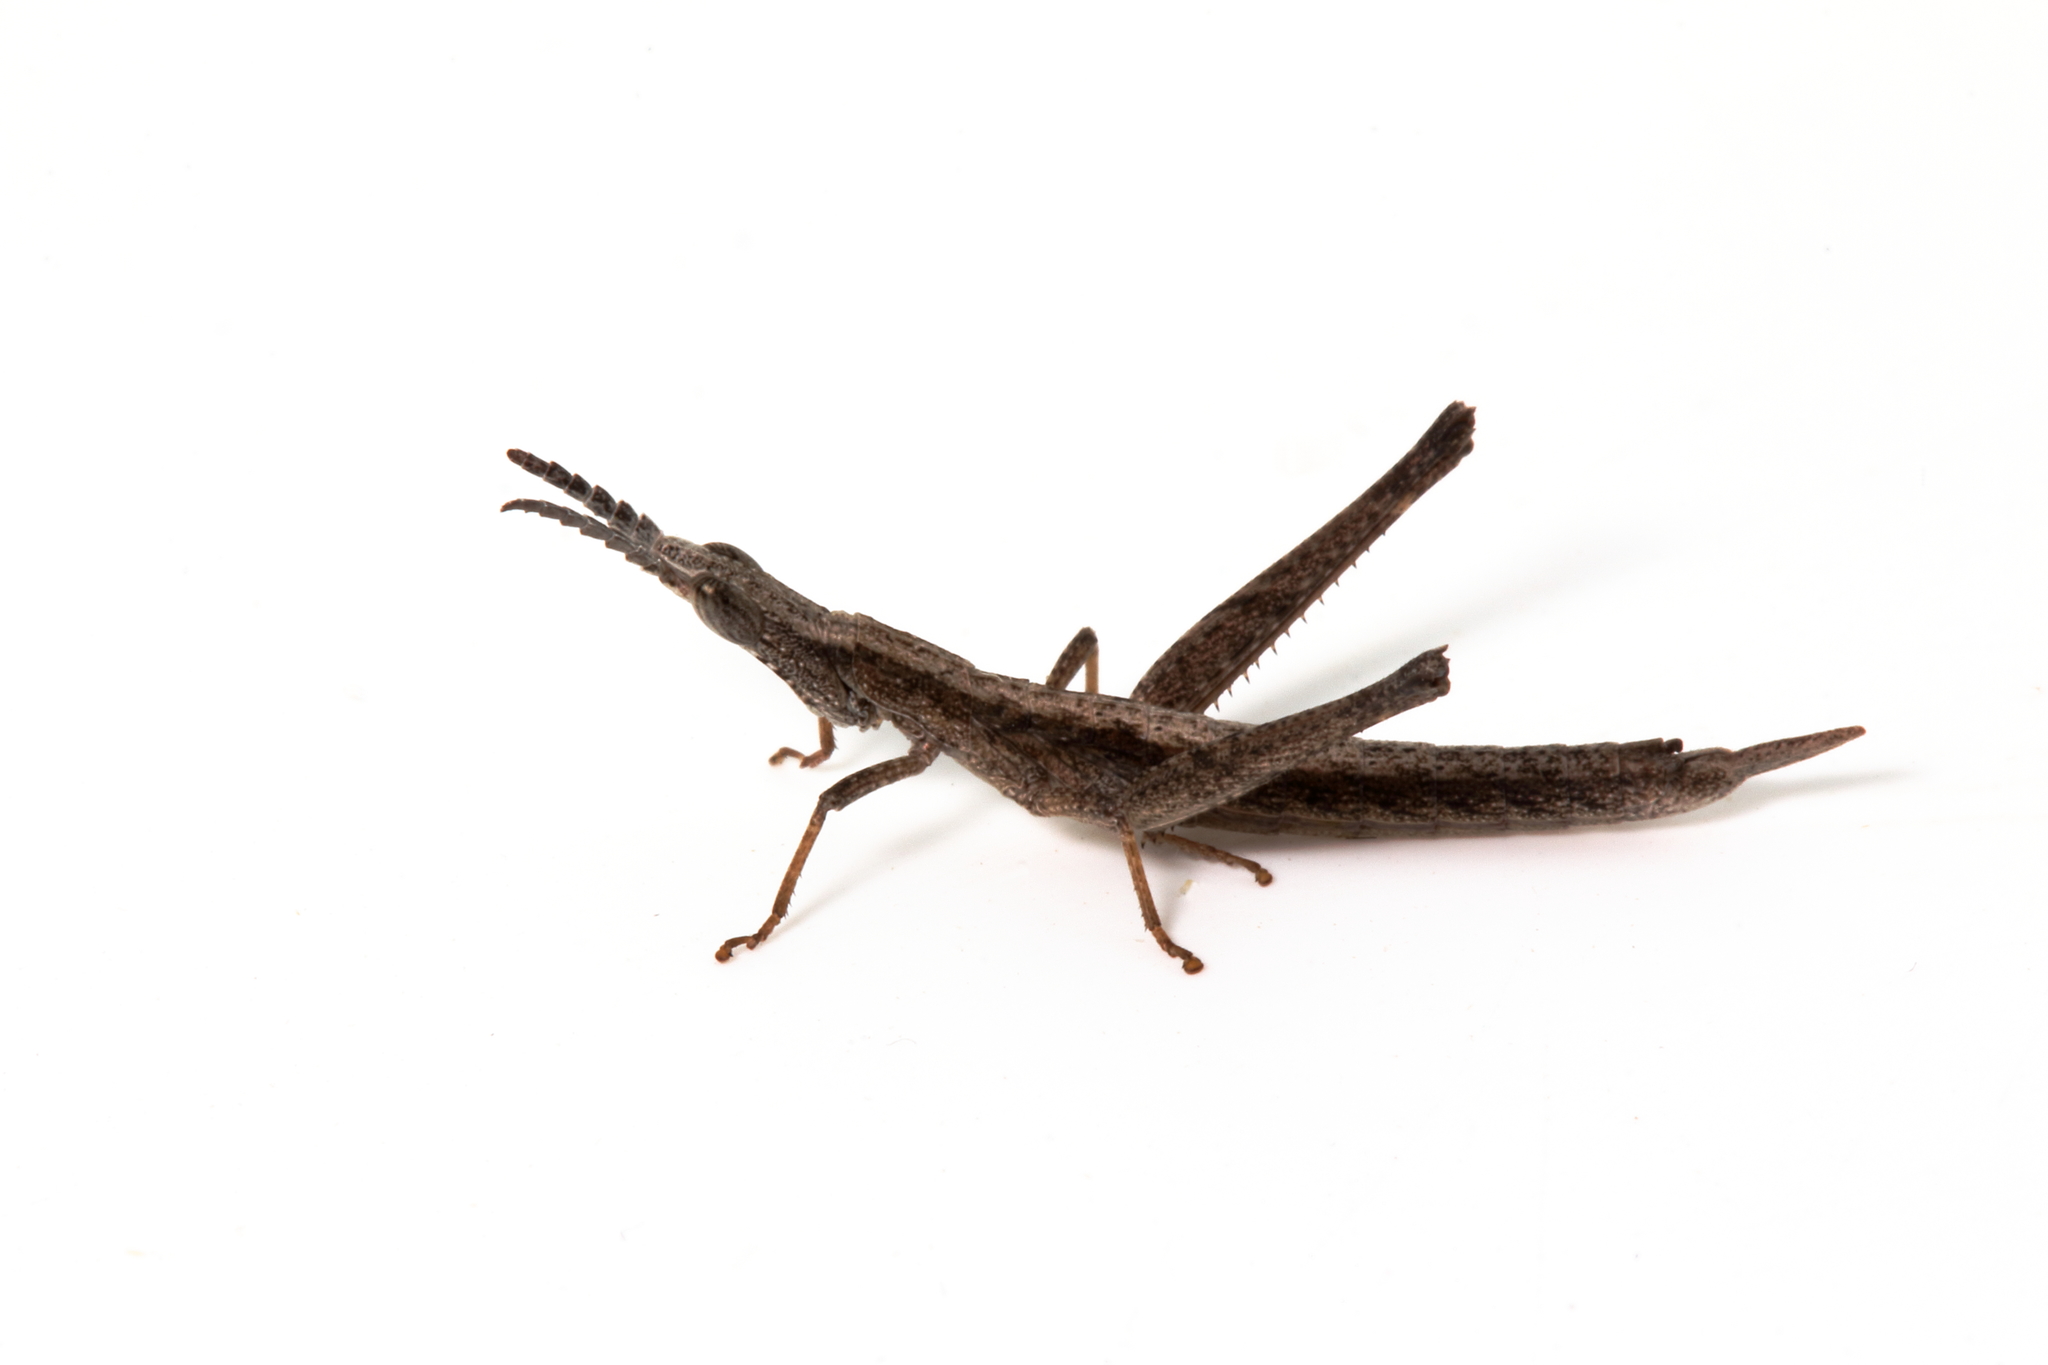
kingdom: Animalia
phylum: Arthropoda
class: Insecta
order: Orthoptera
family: Morabidae
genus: Keyacris
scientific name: Keyacris scurra
